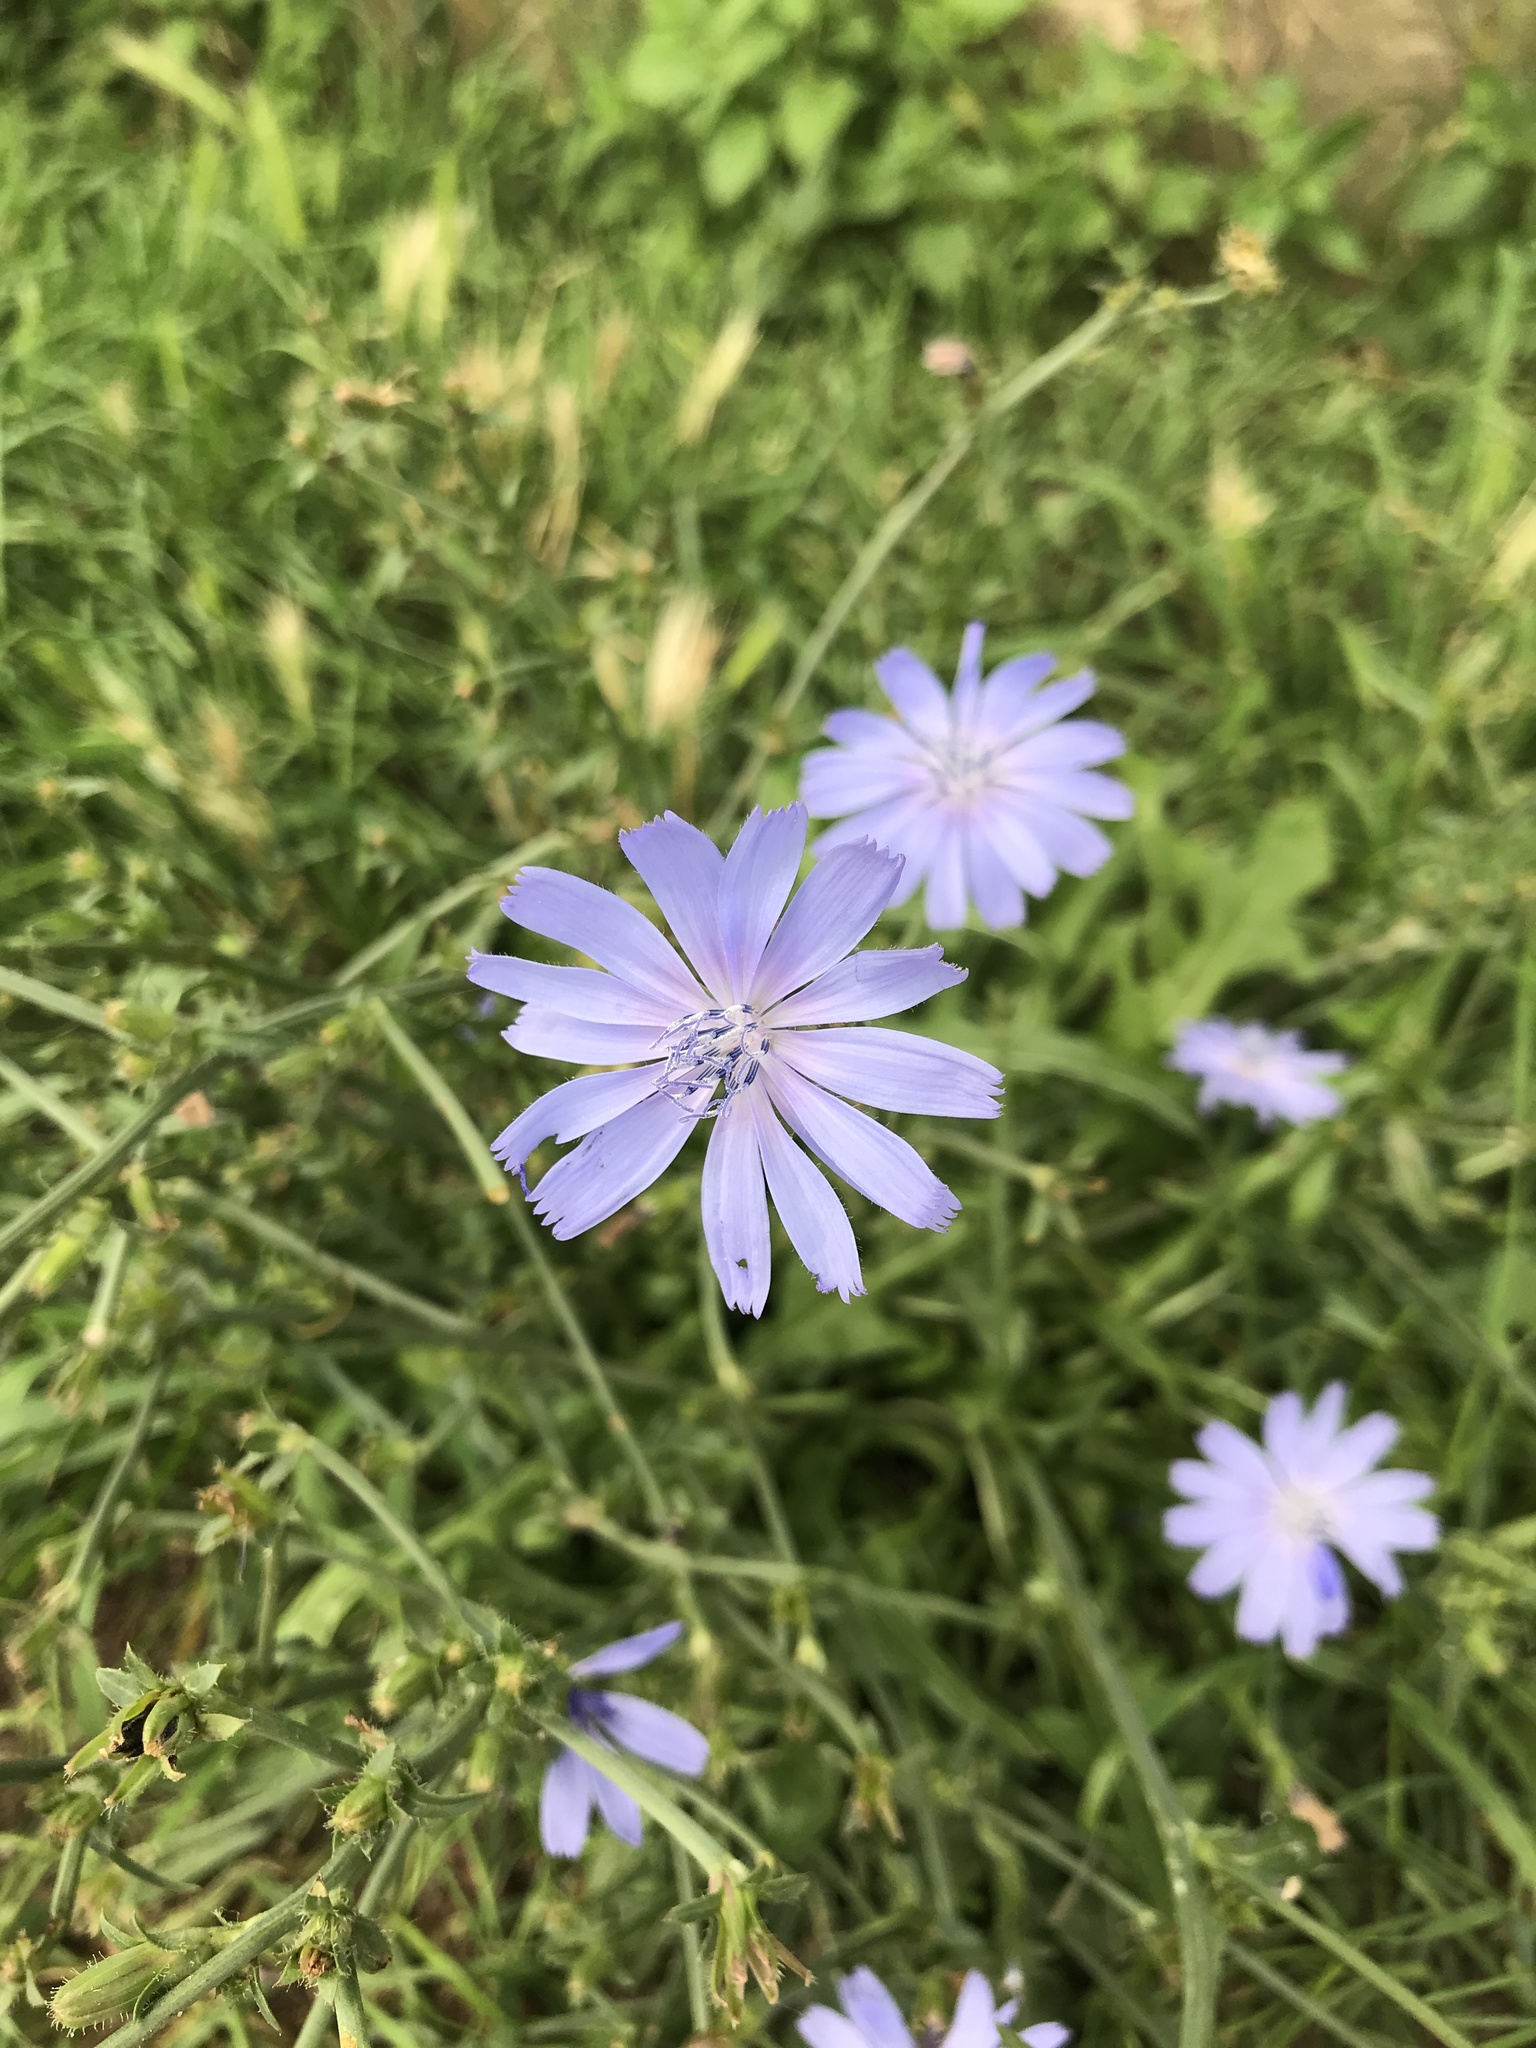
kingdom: Plantae
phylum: Tracheophyta
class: Magnoliopsida
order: Asterales
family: Asteraceae
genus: Cichorium
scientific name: Cichorium intybus
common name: Chicory
